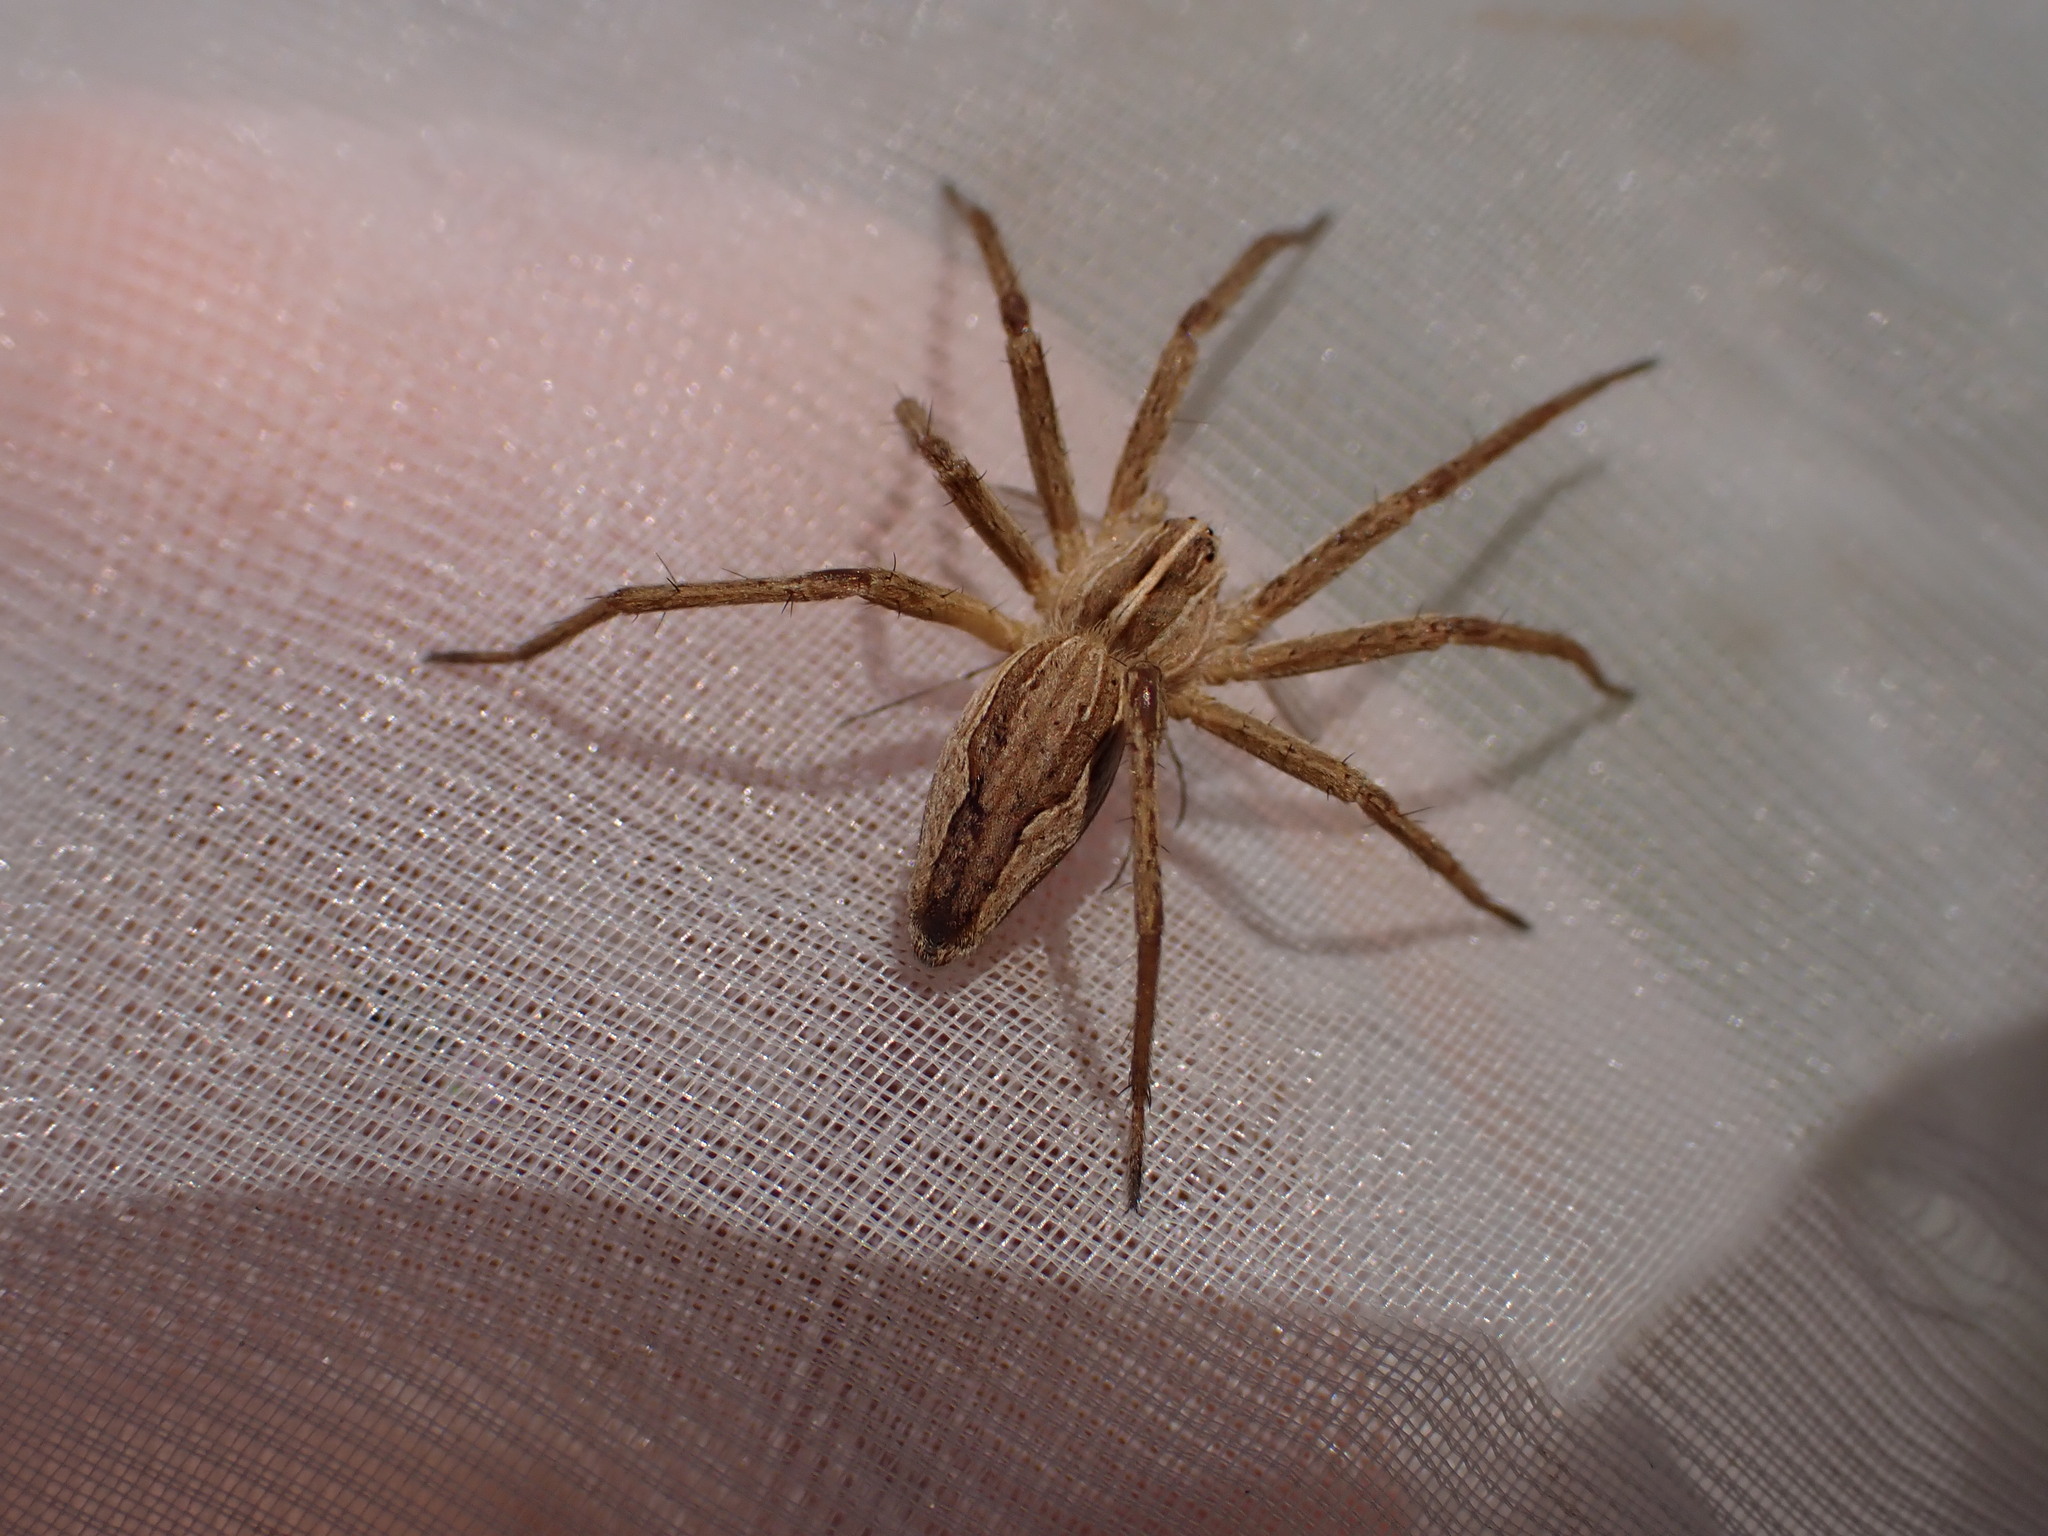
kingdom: Animalia
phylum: Arthropoda
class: Arachnida
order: Araneae
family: Pisauridae
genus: Pisaura
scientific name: Pisaura
